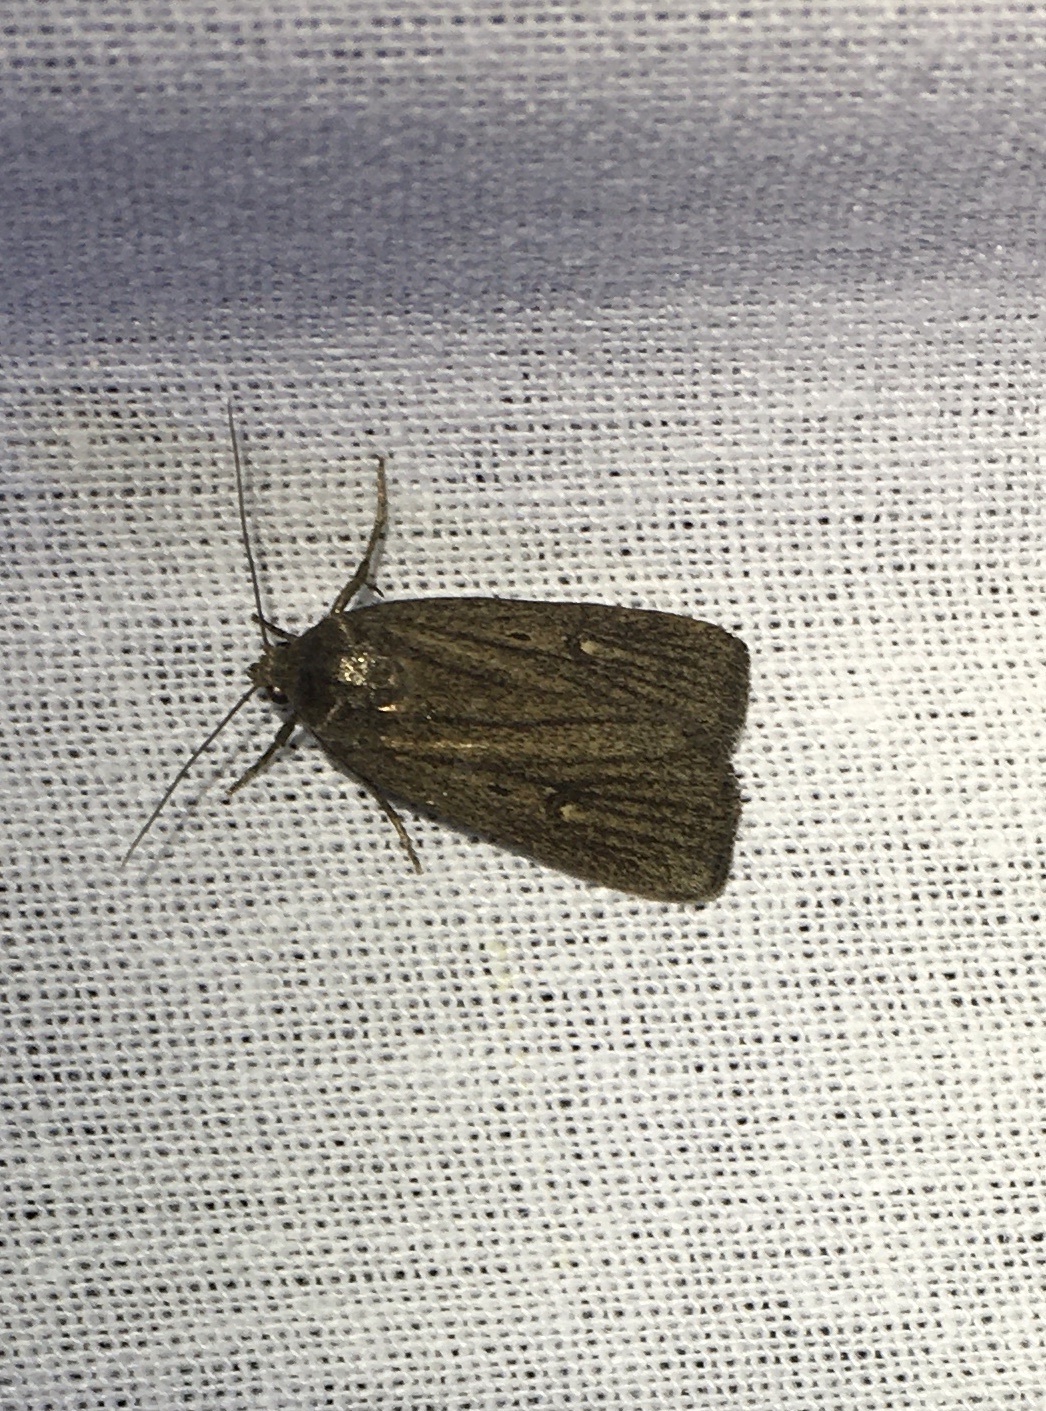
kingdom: Animalia
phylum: Arthropoda
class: Insecta
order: Lepidoptera
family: Noctuidae
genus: Athetis
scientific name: Athetis lepigone
